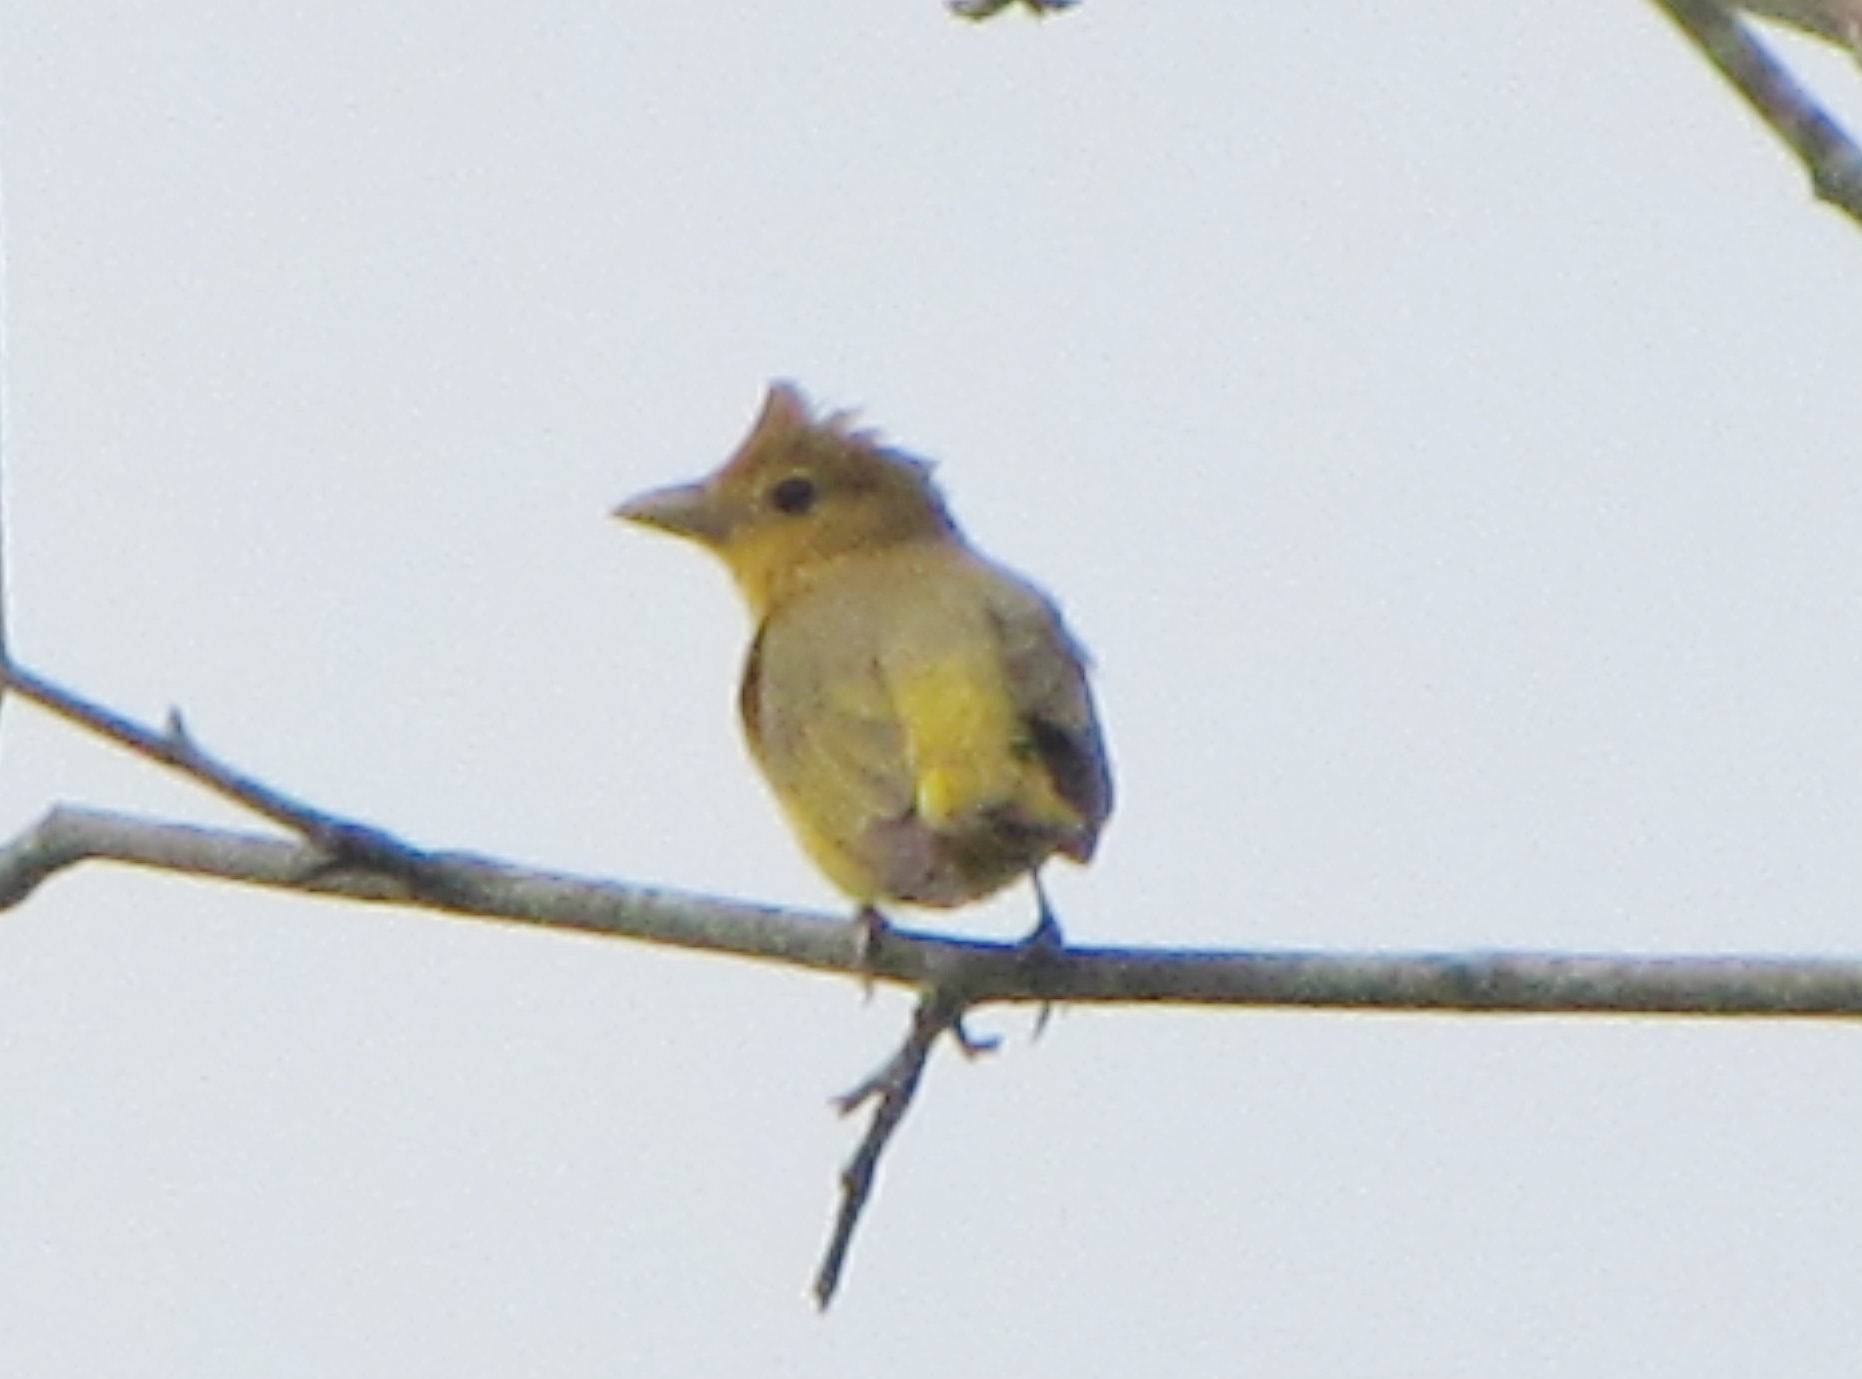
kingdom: Animalia
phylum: Chordata
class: Aves
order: Passeriformes
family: Cardinalidae
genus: Piranga
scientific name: Piranga rubra
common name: Summer tanager
